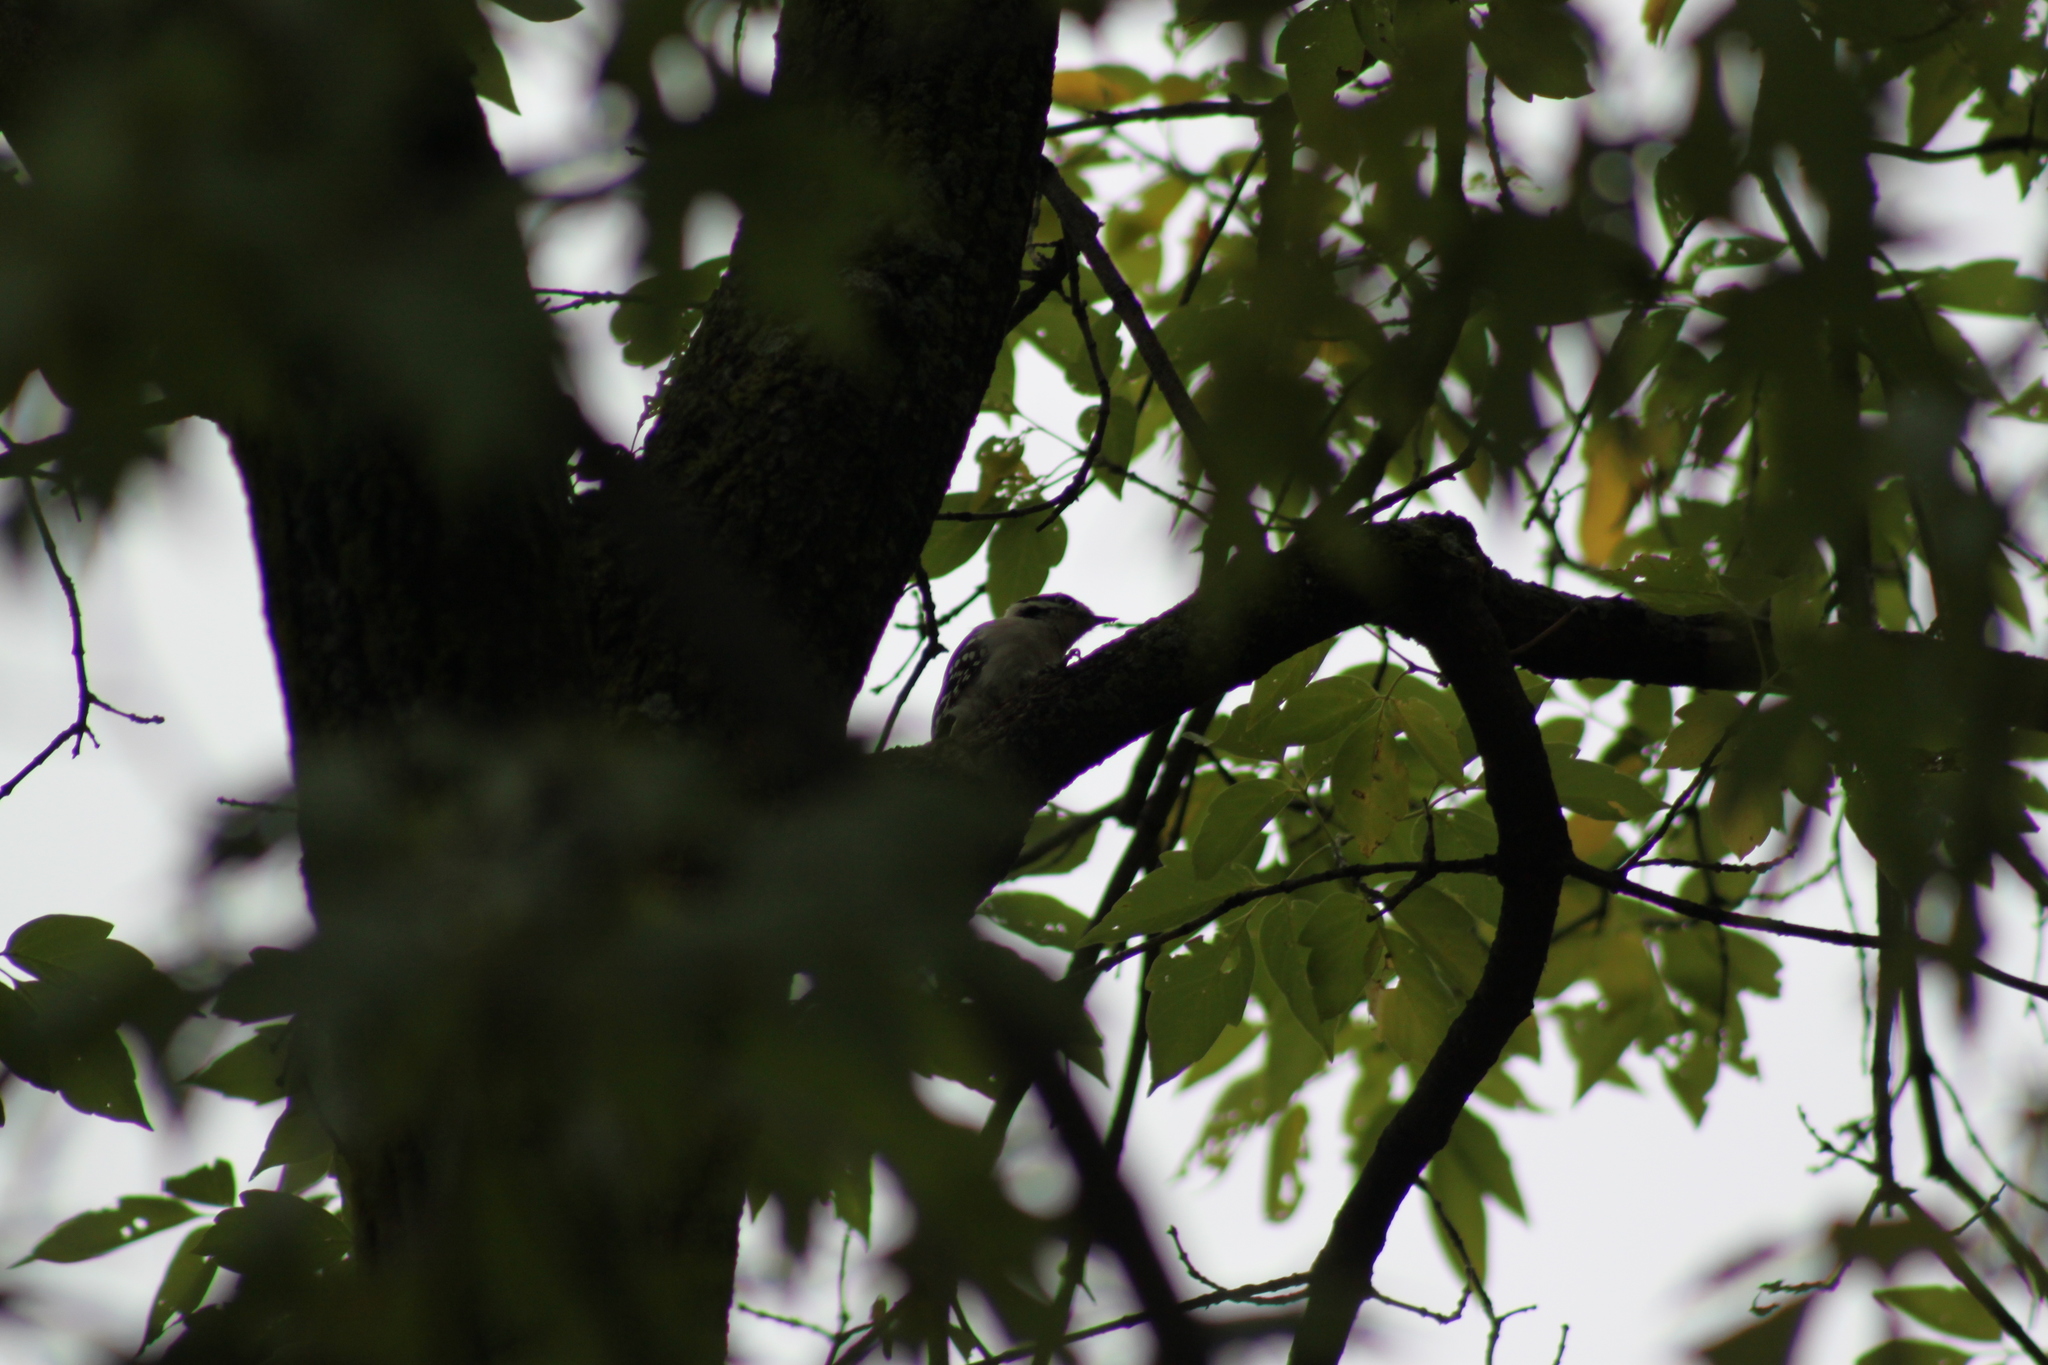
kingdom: Animalia
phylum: Chordata
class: Aves
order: Piciformes
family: Picidae
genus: Dryobates
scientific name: Dryobates pubescens
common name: Downy woodpecker
